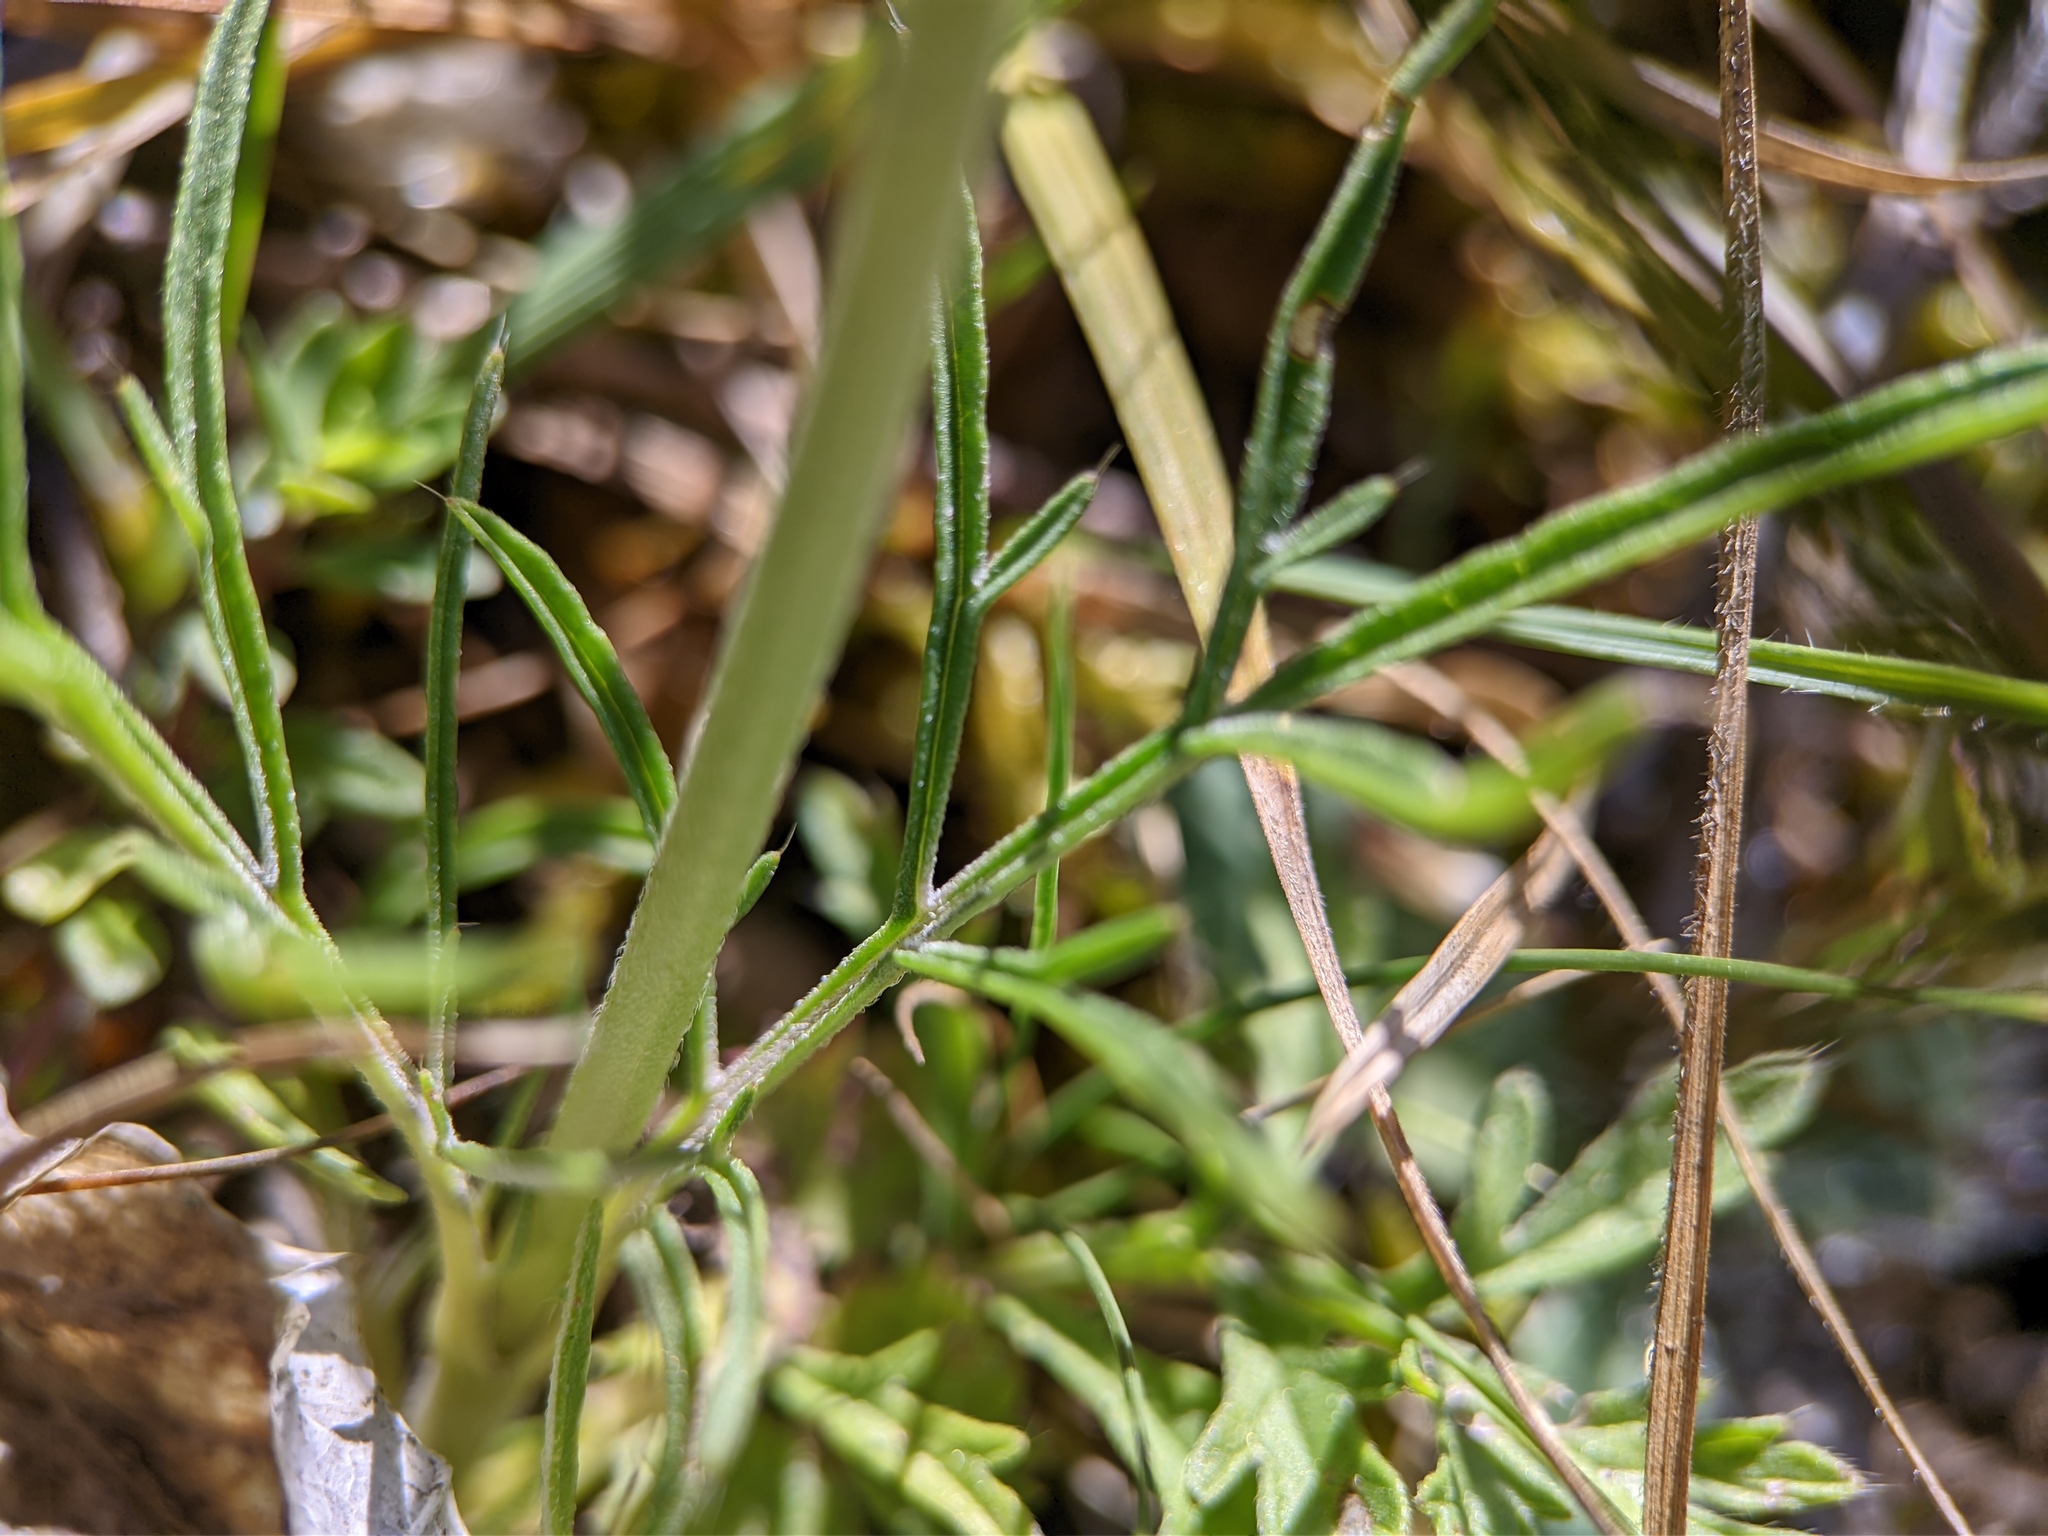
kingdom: Plantae
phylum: Tracheophyta
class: Magnoliopsida
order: Dipsacales
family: Caprifoliaceae
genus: Scabiosa
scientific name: Scabiosa columbaria
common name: Small scabious
